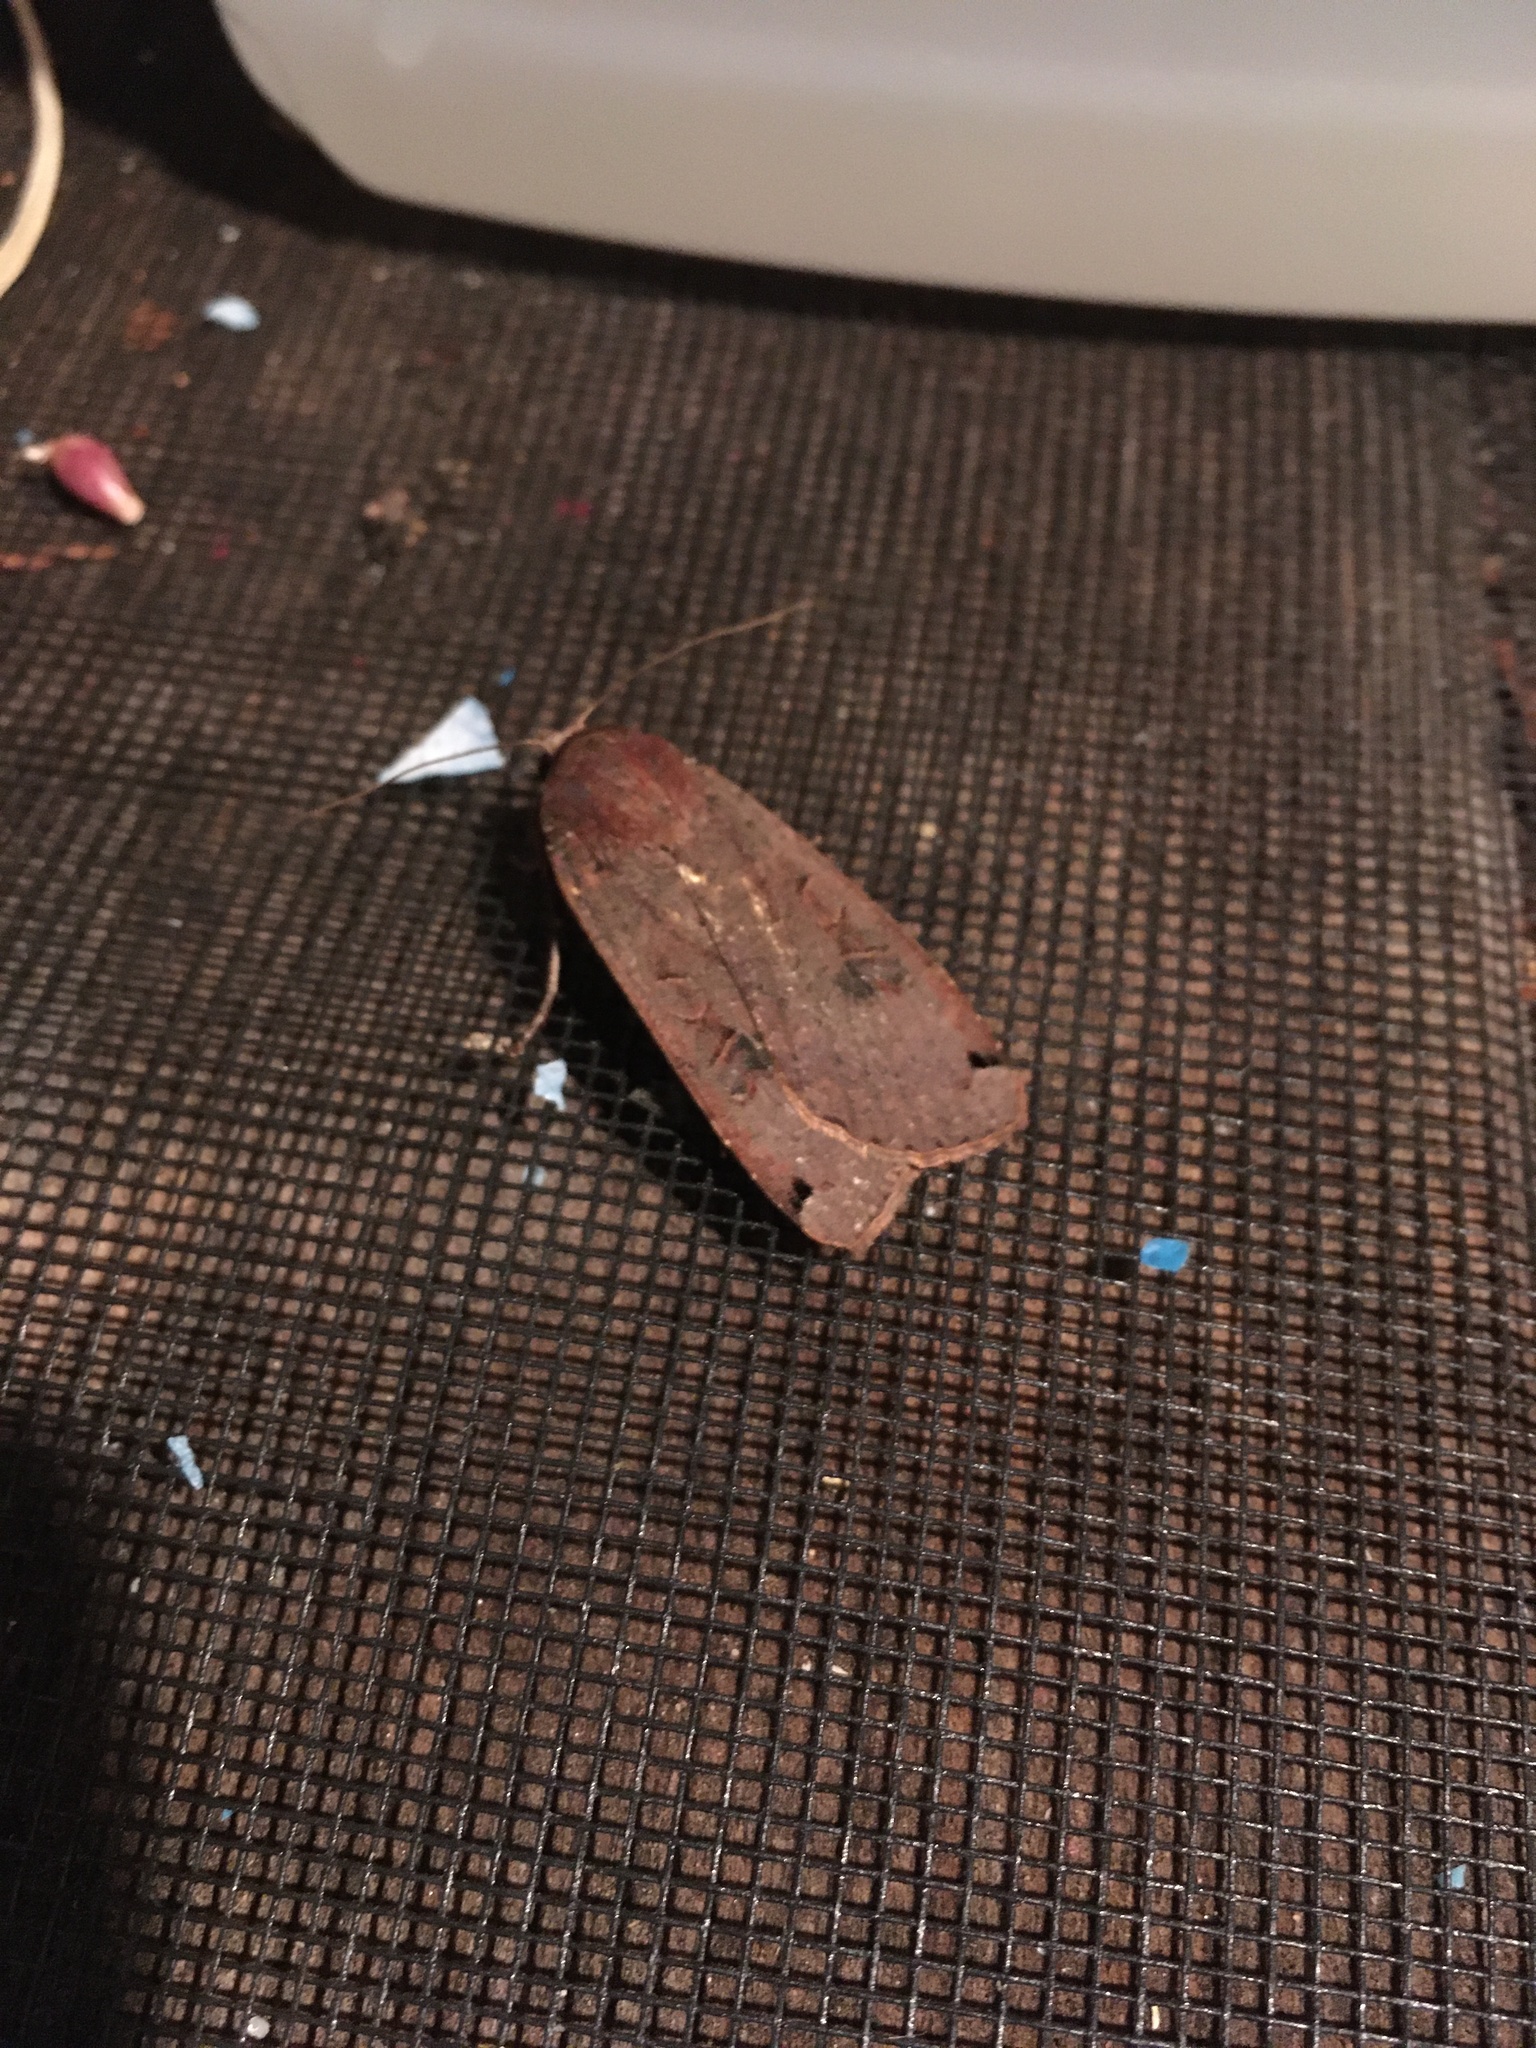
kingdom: Animalia
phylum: Arthropoda
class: Insecta
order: Lepidoptera
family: Noctuidae
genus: Noctua
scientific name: Noctua pronuba
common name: Large yellow underwing
